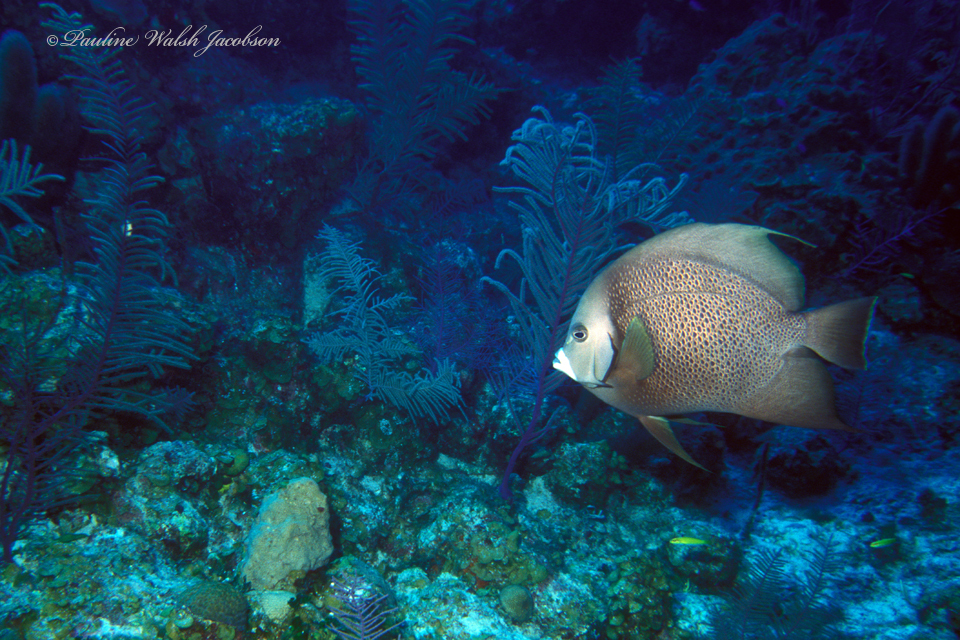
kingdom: Animalia
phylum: Chordata
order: Perciformes
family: Pomacanthidae
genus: Pomacanthus
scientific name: Pomacanthus arcuatus
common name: Gray angelfish
